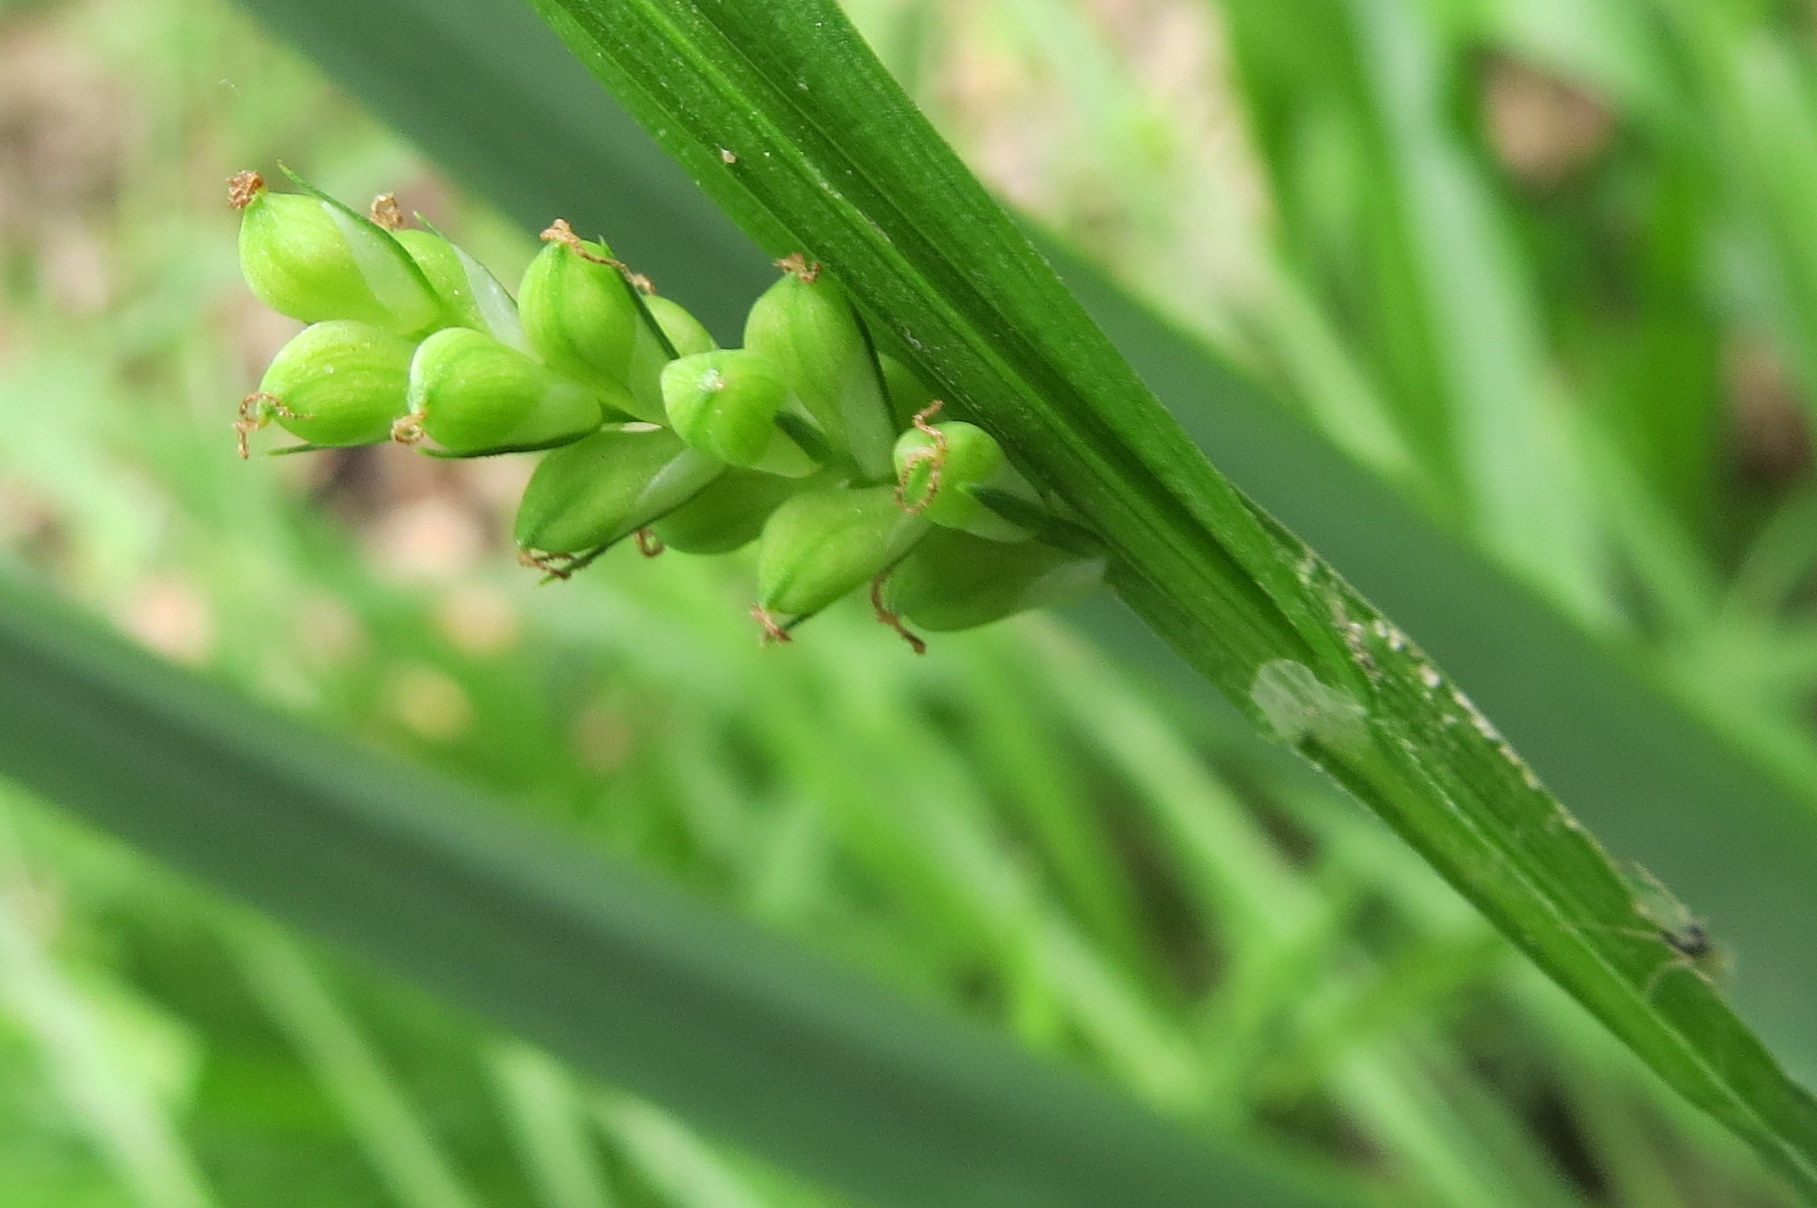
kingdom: Plantae
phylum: Tracheophyta
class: Liliopsida
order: Poales
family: Cyperaceae
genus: Carex
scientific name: Carex blanda
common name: Bland sedge
